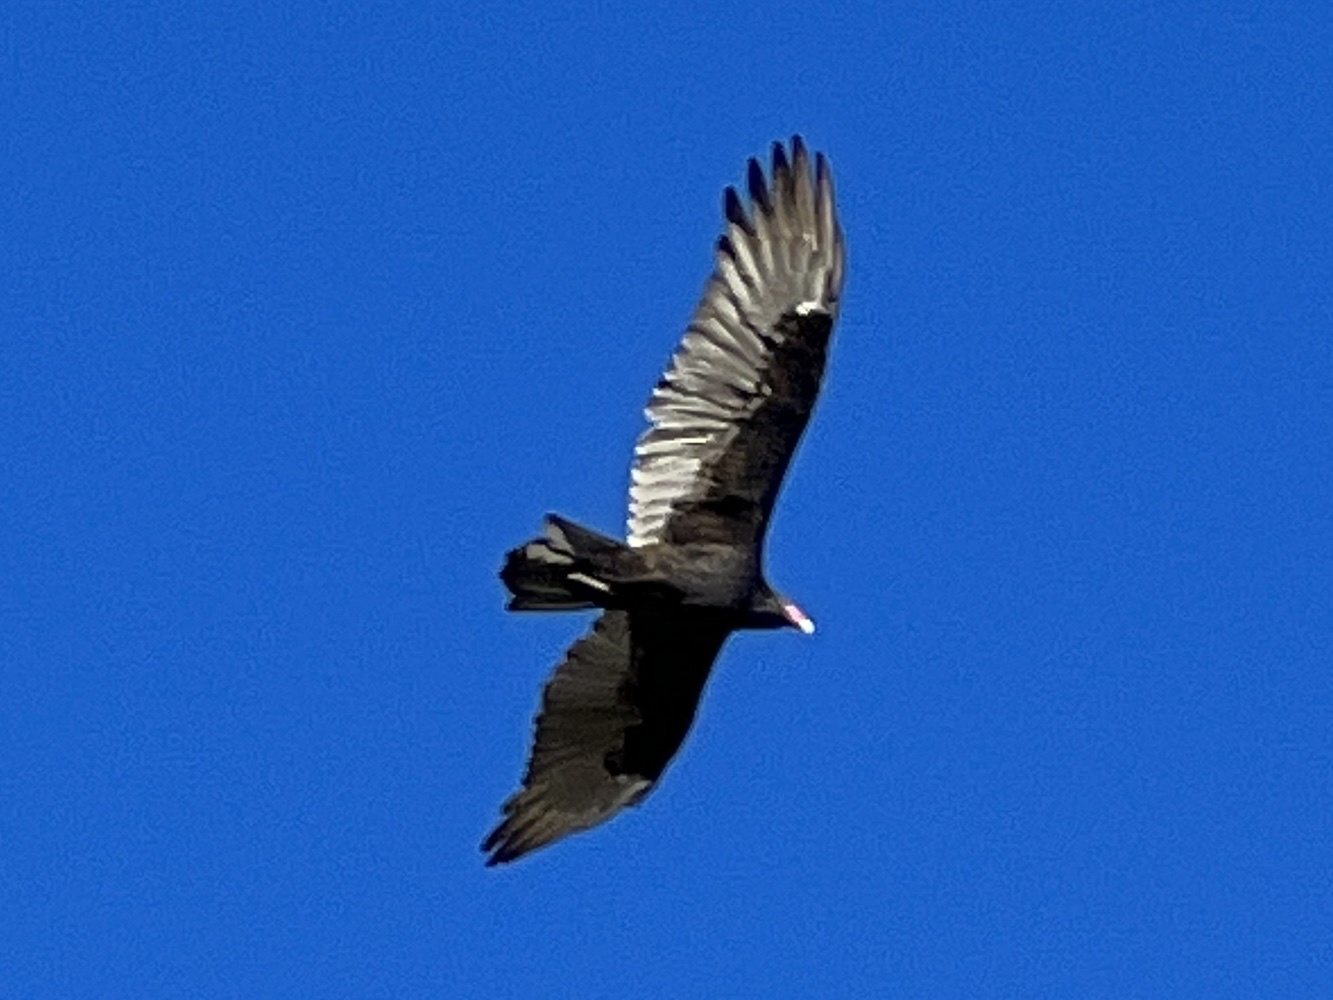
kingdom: Animalia
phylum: Chordata
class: Aves
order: Accipitriformes
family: Cathartidae
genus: Cathartes
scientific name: Cathartes aura
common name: Turkey vulture
